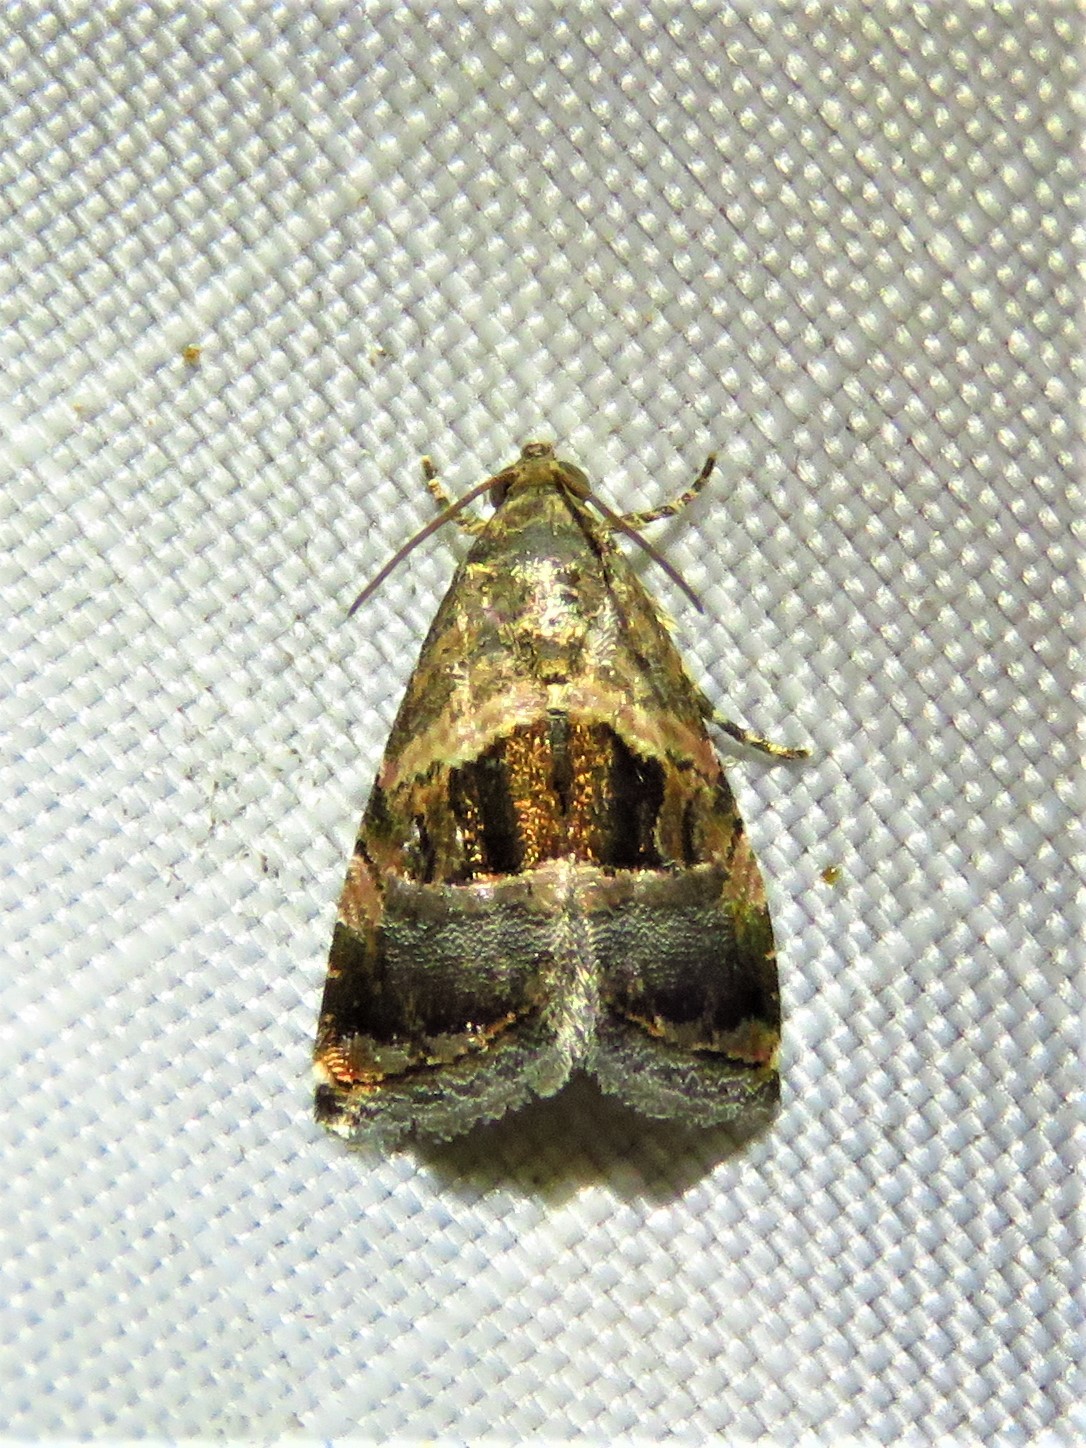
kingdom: Animalia
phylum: Arthropoda
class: Insecta
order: Lepidoptera
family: Noctuidae
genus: Tripudia
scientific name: Tripudia quadrifera
